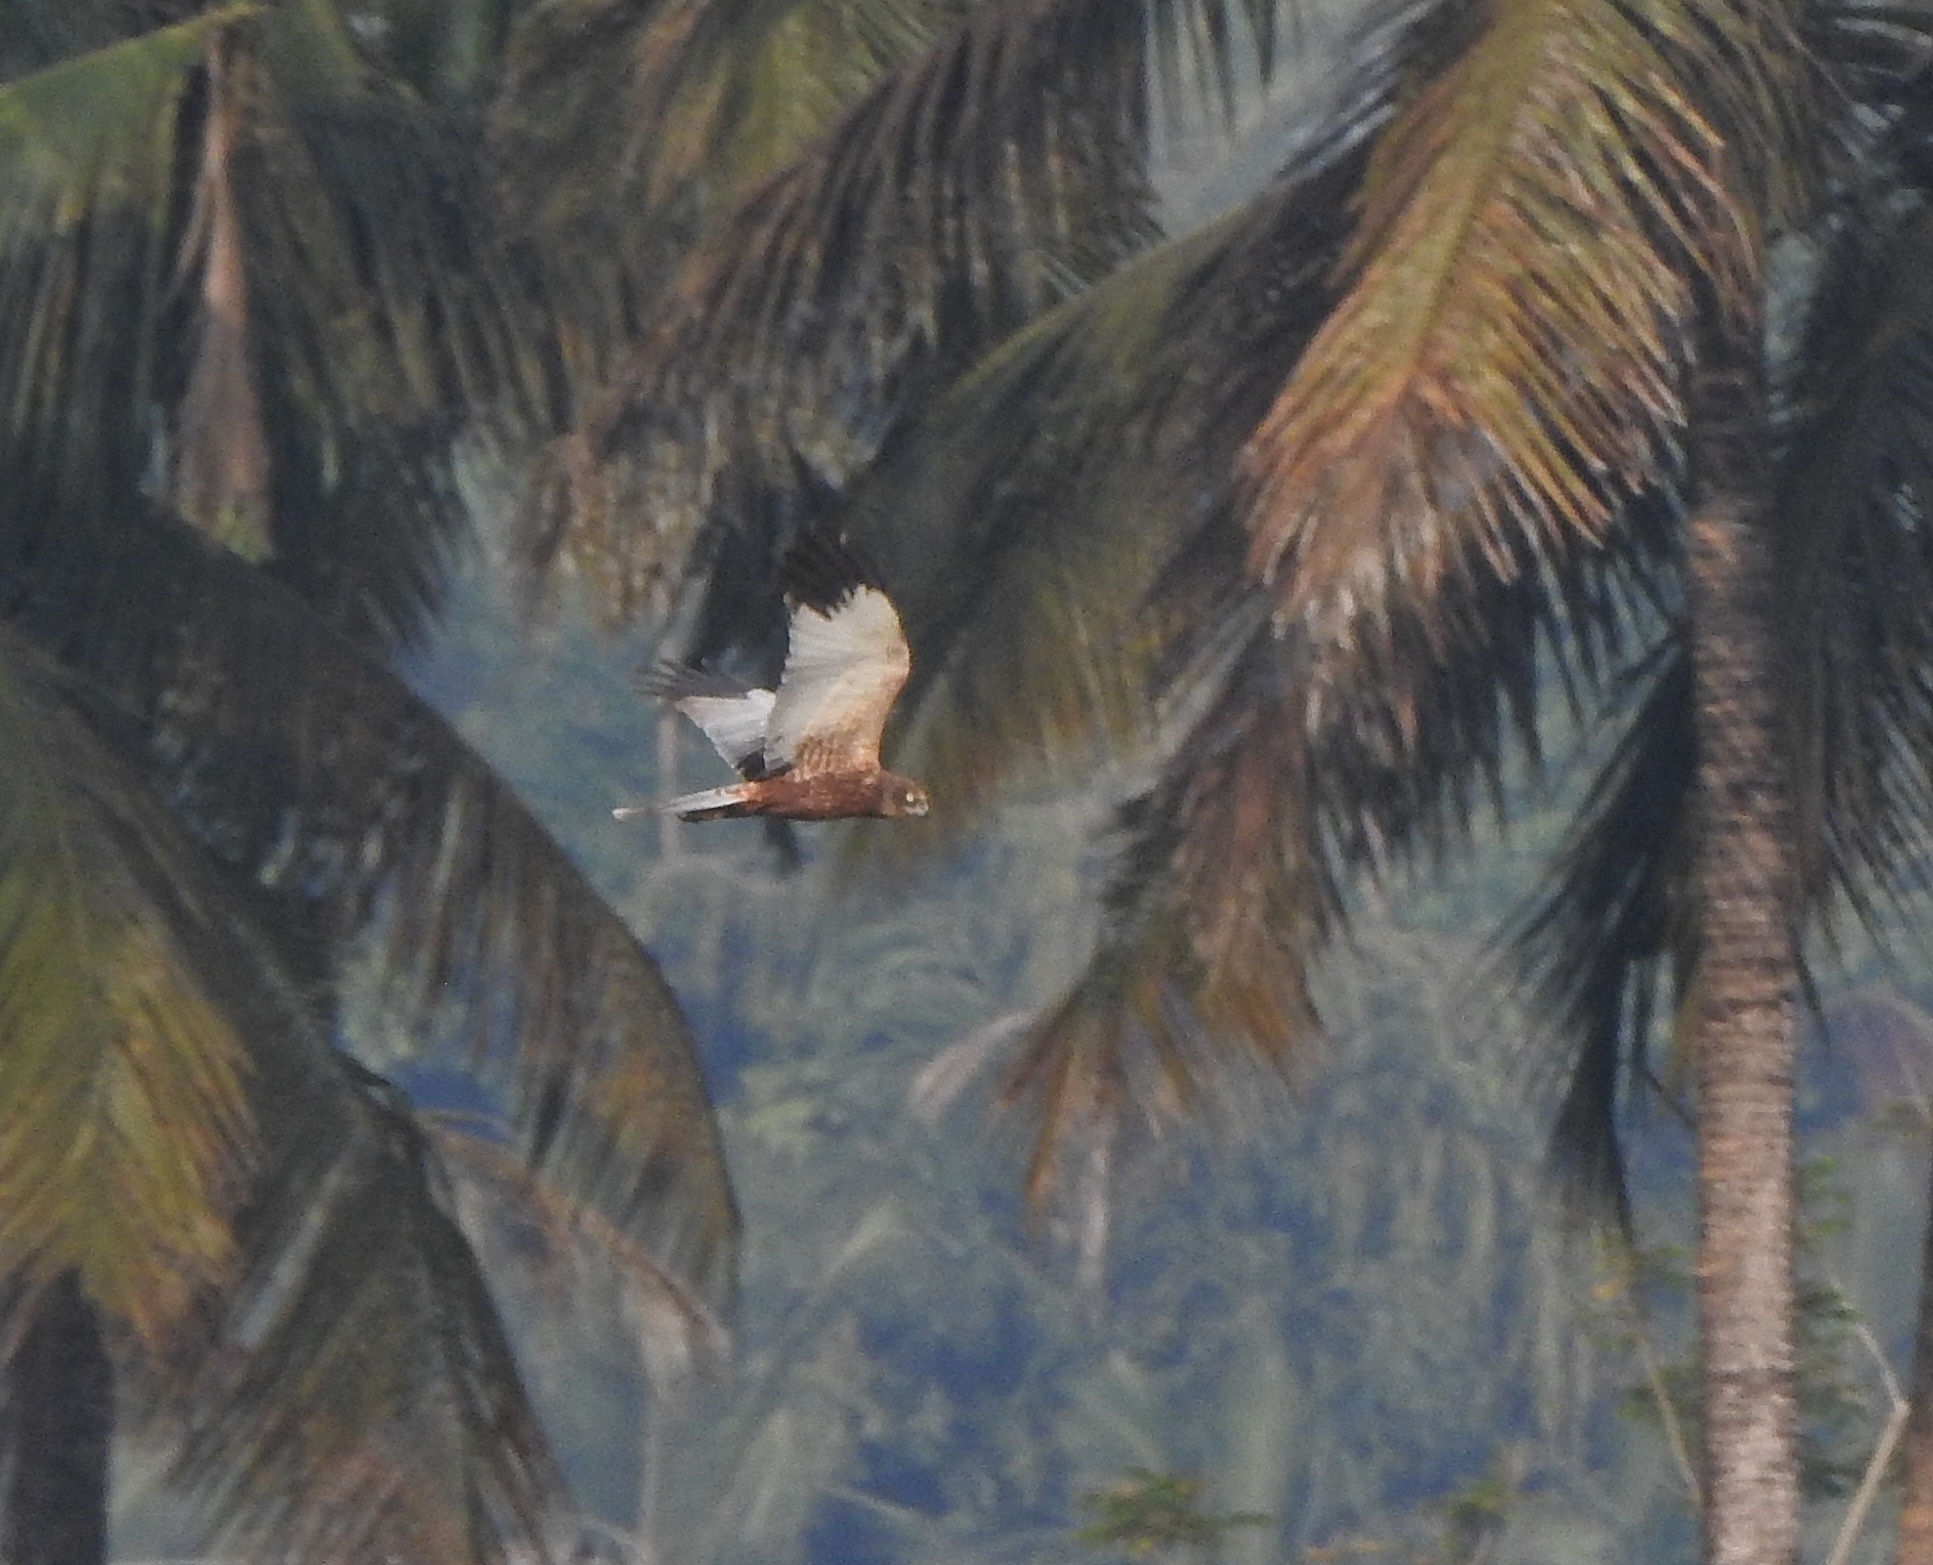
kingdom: Animalia
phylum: Chordata
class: Aves
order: Accipitriformes
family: Accipitridae
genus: Circus
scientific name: Circus aeruginosus
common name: Western marsh harrier
